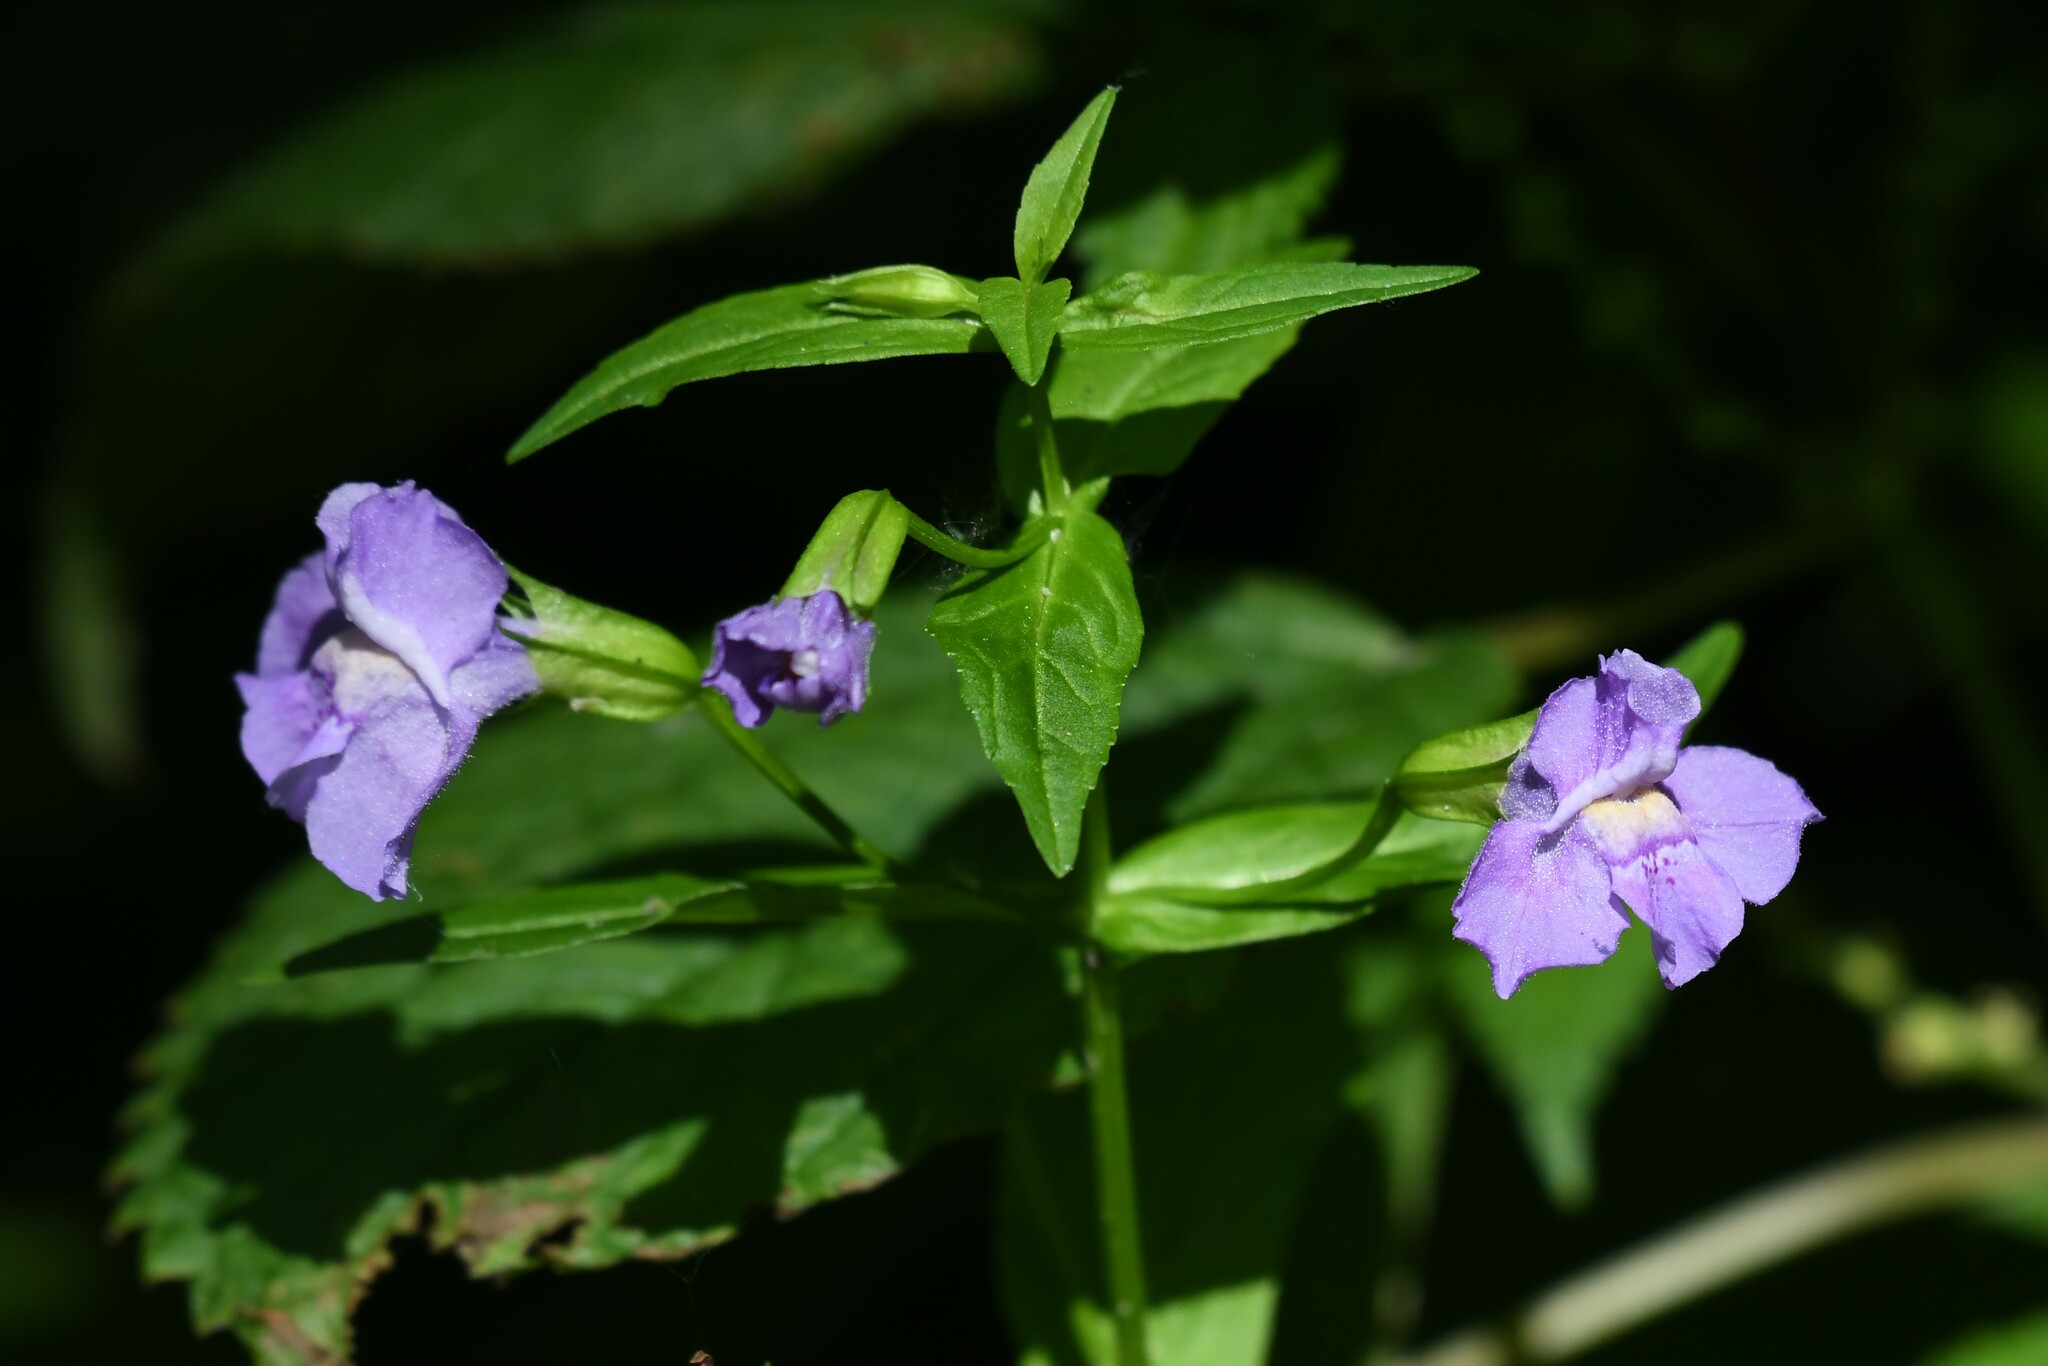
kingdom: Plantae
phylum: Tracheophyta
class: Magnoliopsida
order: Lamiales
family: Phrymaceae
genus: Mimulus
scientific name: Mimulus ringens
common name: Allegheny monkeyflower
